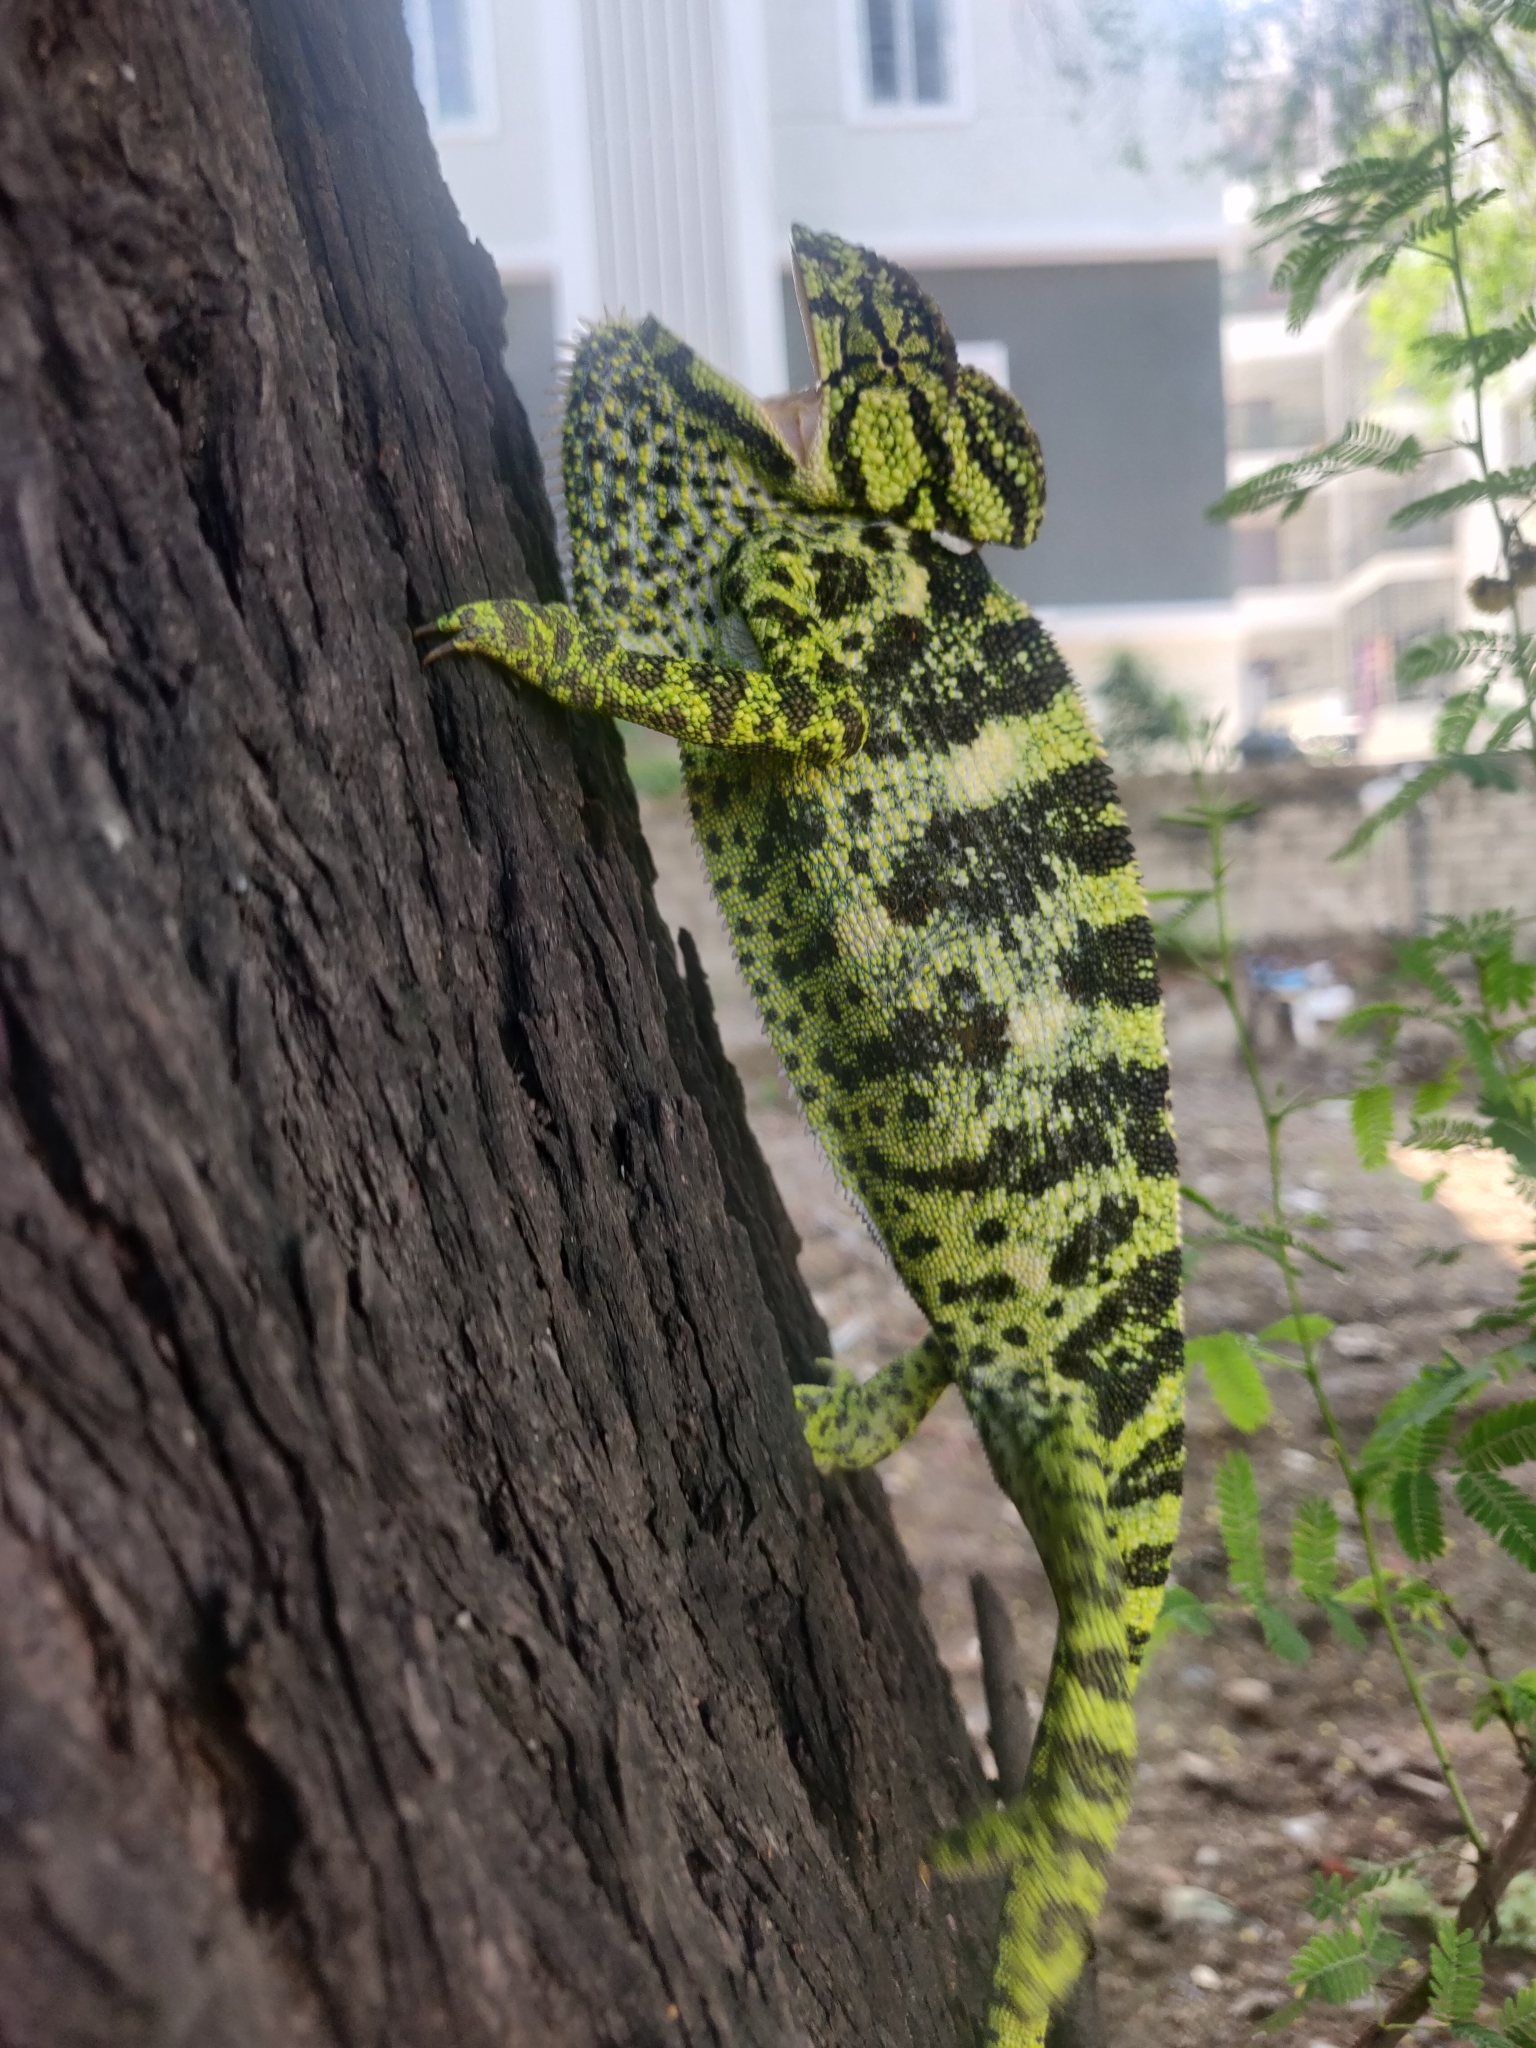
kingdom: Animalia
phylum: Chordata
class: Squamata
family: Chamaeleonidae
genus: Chamaeleo
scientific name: Chamaeleo zeylanicus
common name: Indian chameleon
